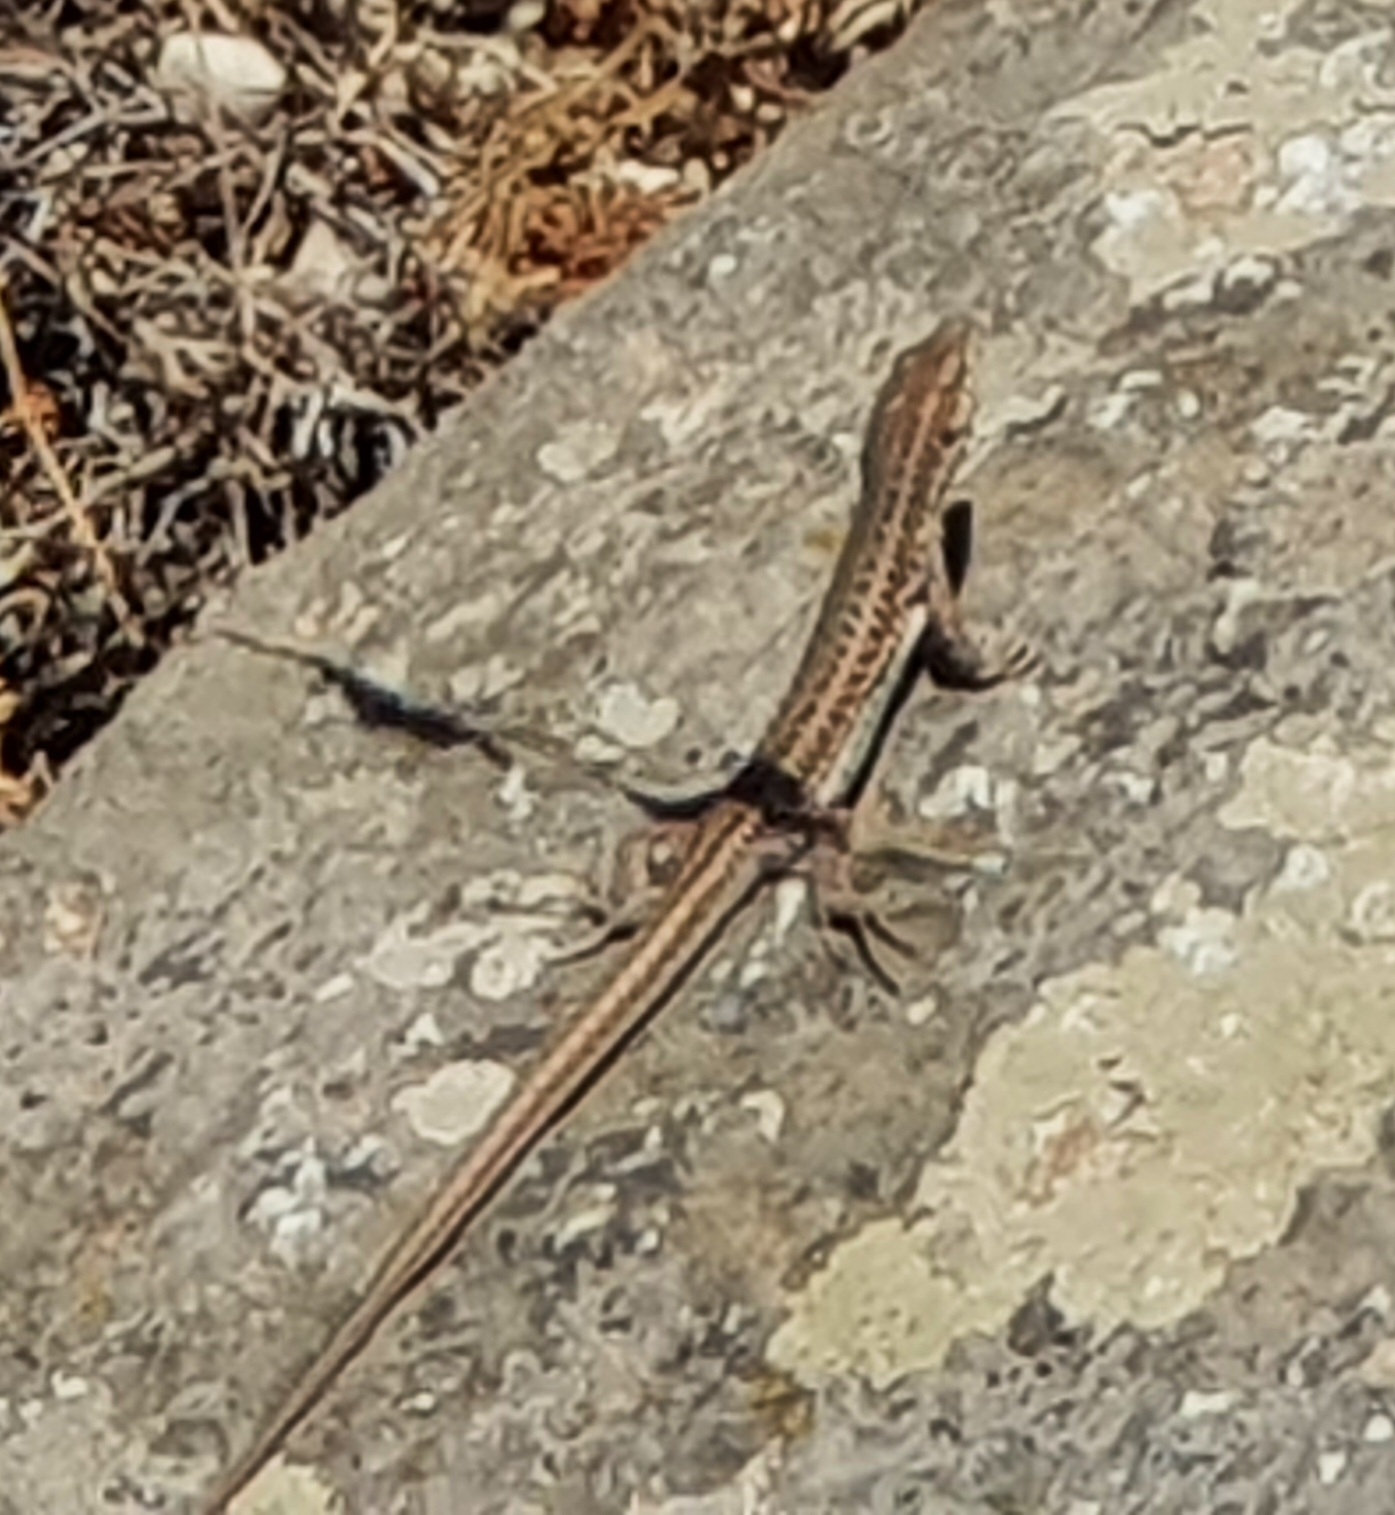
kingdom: Animalia
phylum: Chordata
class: Squamata
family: Lacertidae
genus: Podarcis
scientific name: Podarcis erhardii
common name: Erhard's wall lizard
